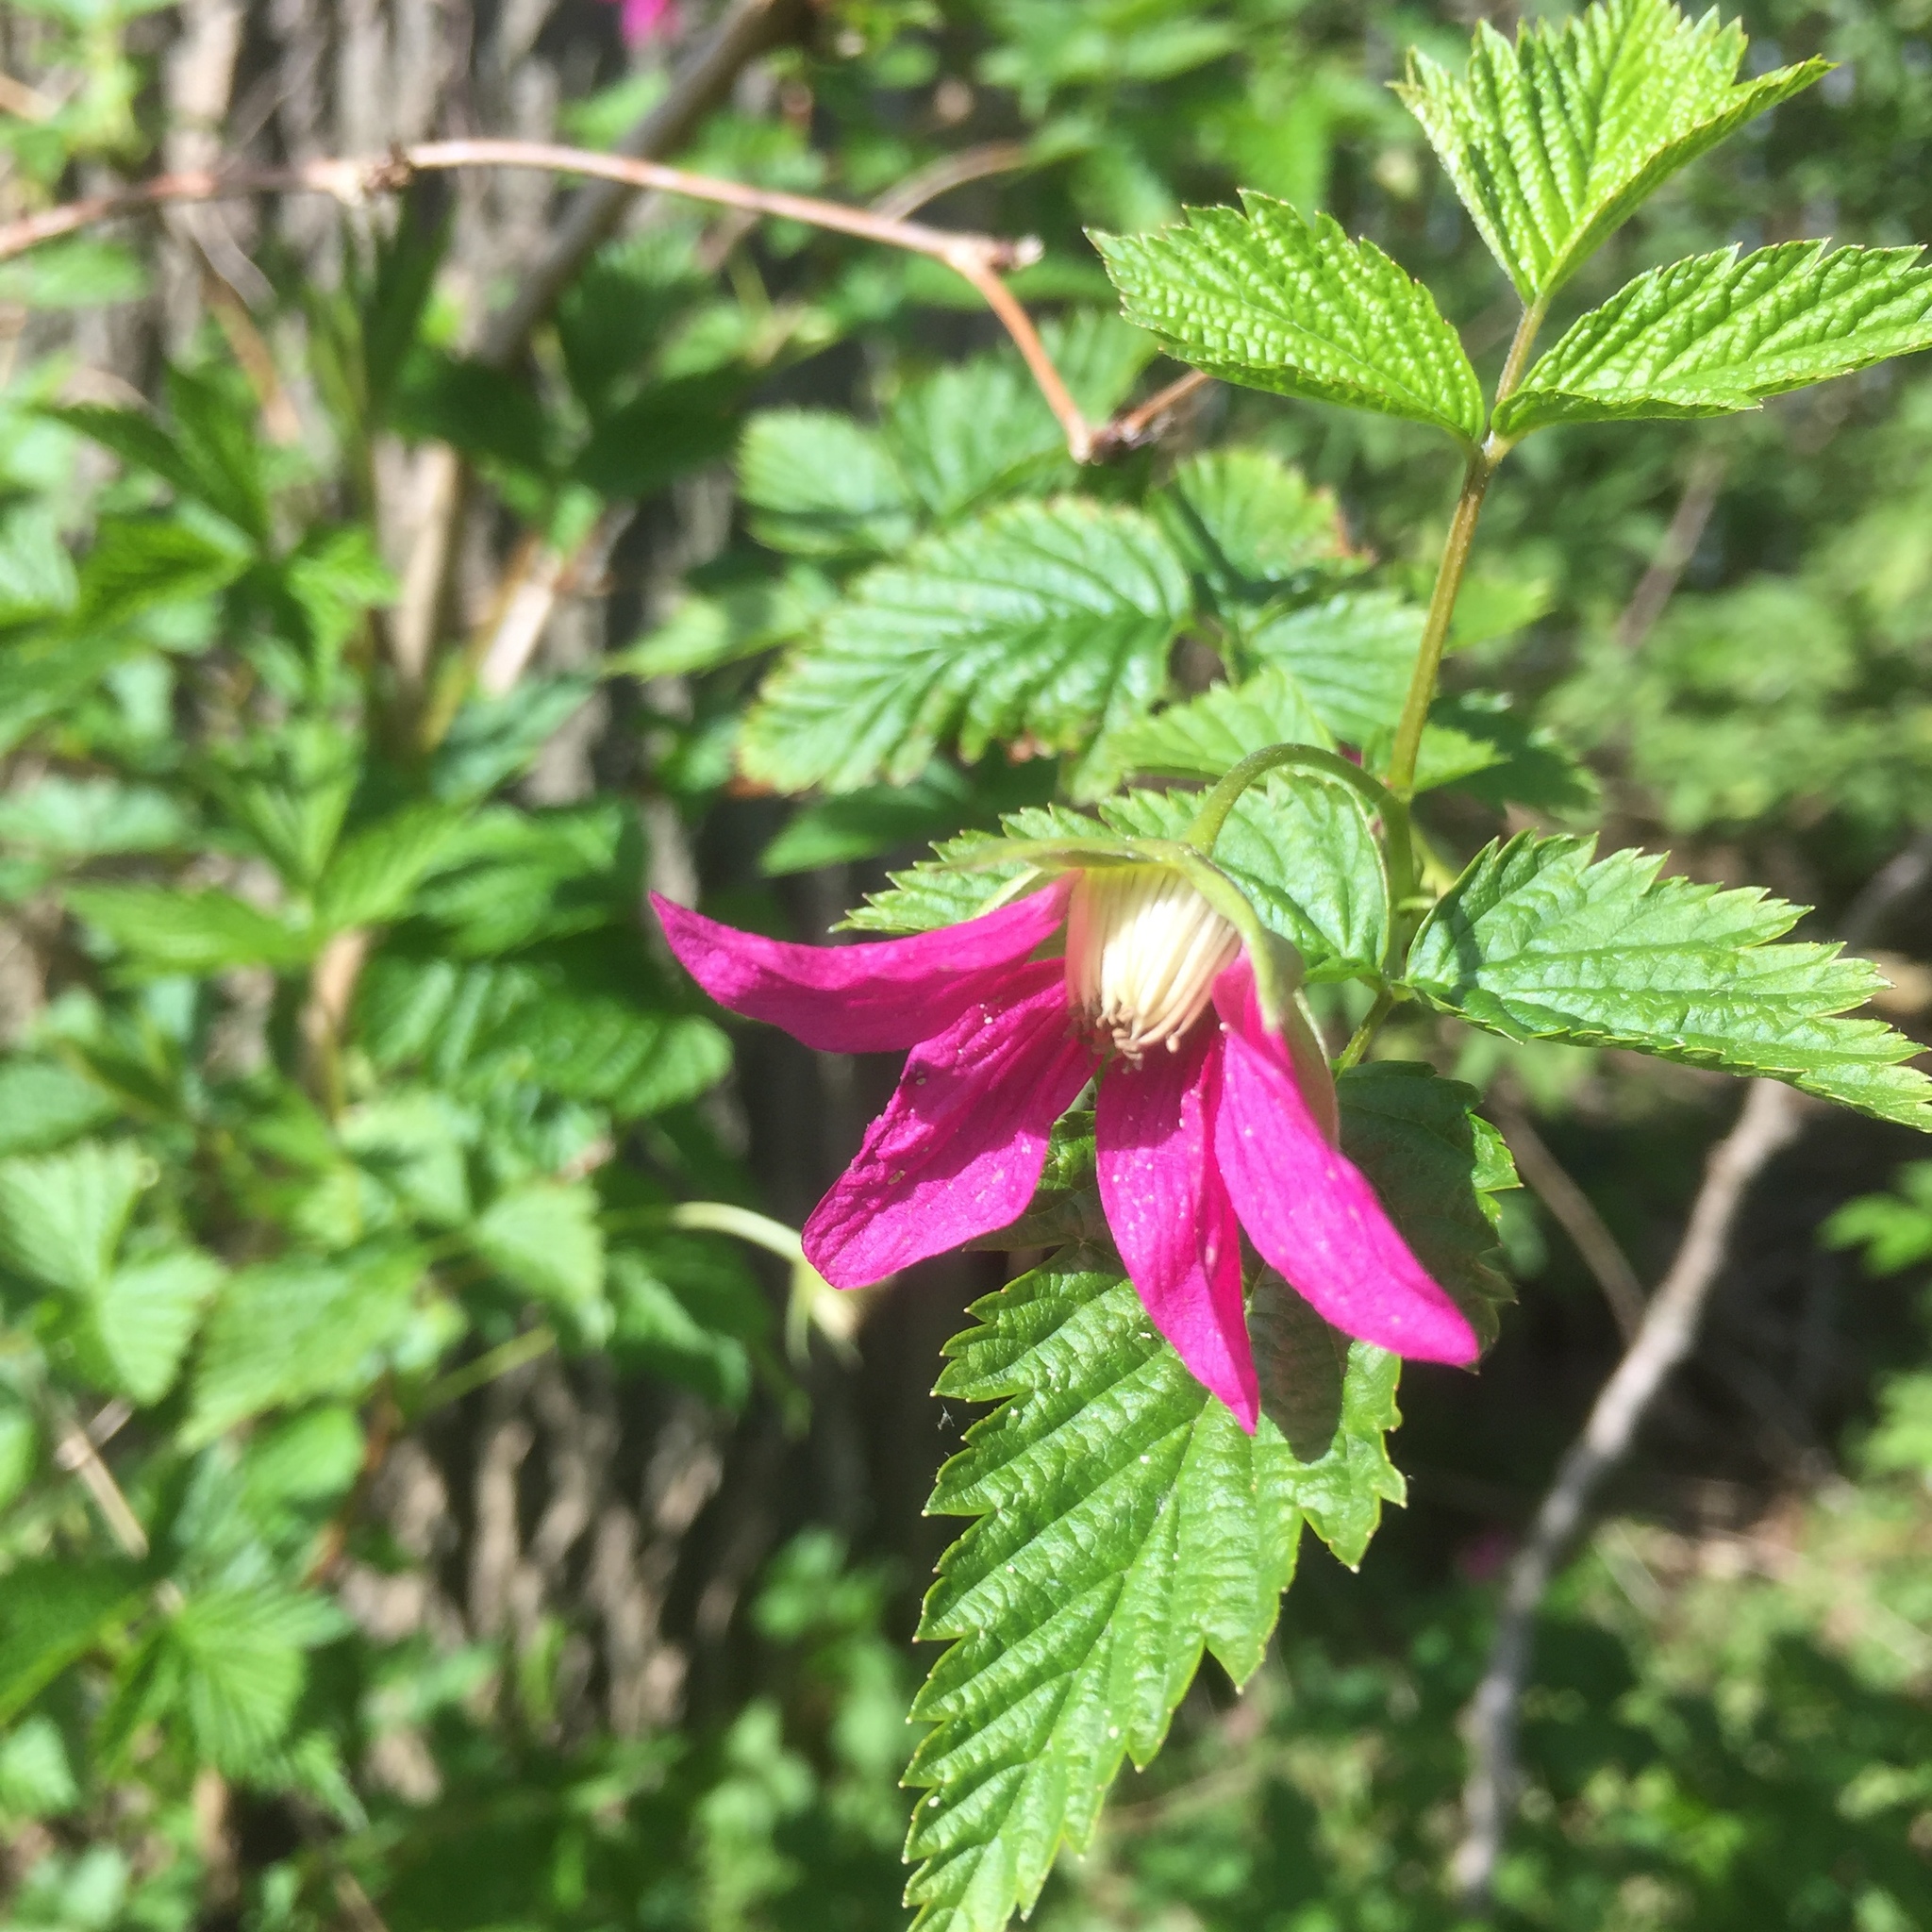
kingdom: Plantae
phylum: Tracheophyta
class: Magnoliopsida
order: Rosales
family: Rosaceae
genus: Rubus
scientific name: Rubus spectabilis
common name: Salmonberry
